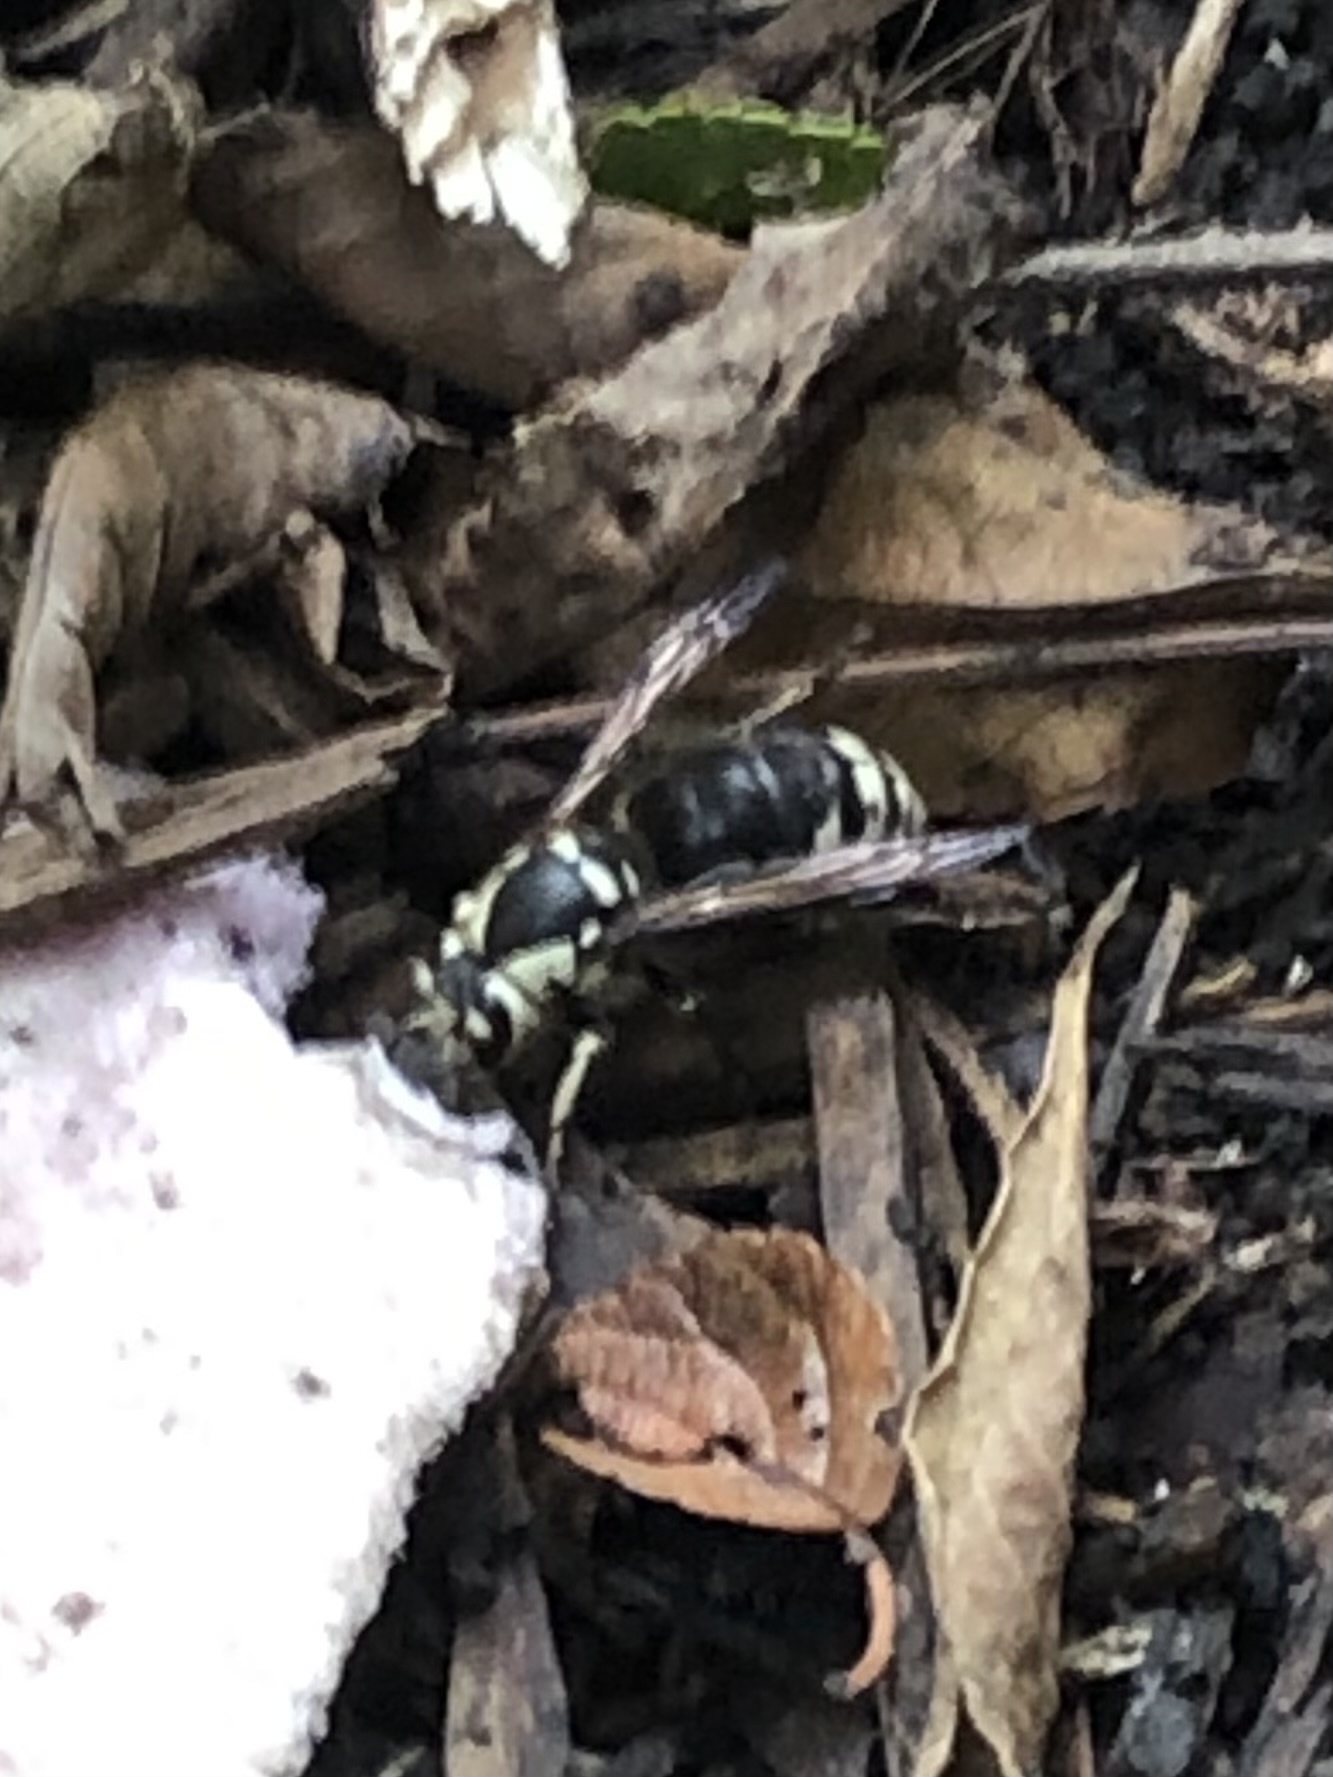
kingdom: Animalia
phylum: Arthropoda
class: Insecta
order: Hymenoptera
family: Vespidae
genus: Dolichovespula
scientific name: Dolichovespula maculata
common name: Bald-faced hornet
